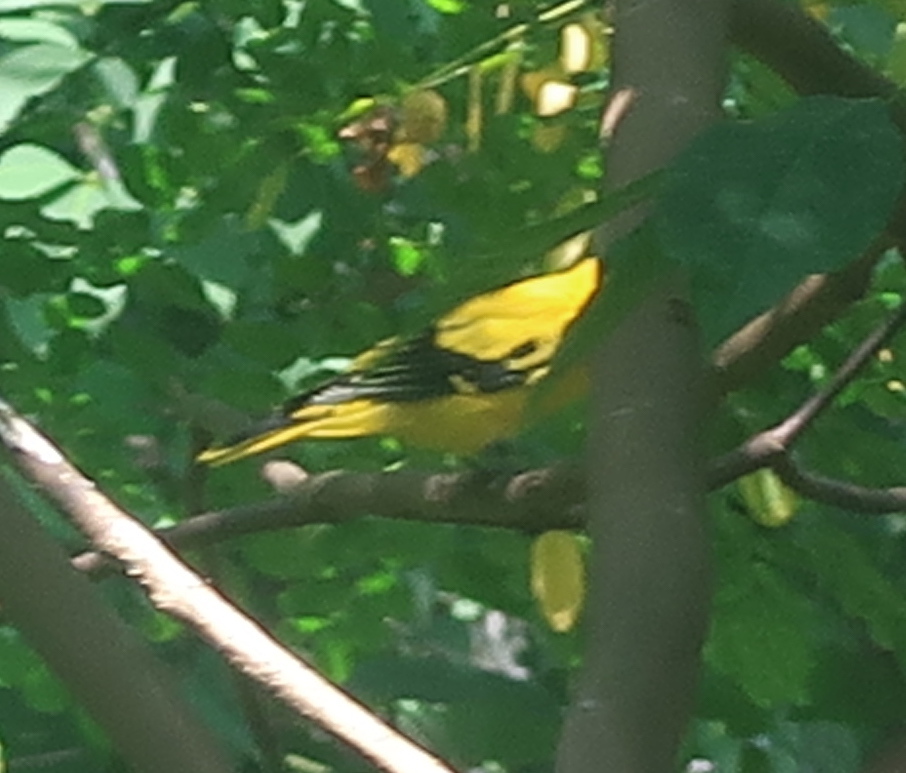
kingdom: Animalia
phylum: Chordata
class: Aves
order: Passeriformes
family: Oriolidae
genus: Oriolus
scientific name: Oriolus chinensis
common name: Black-naped oriole
